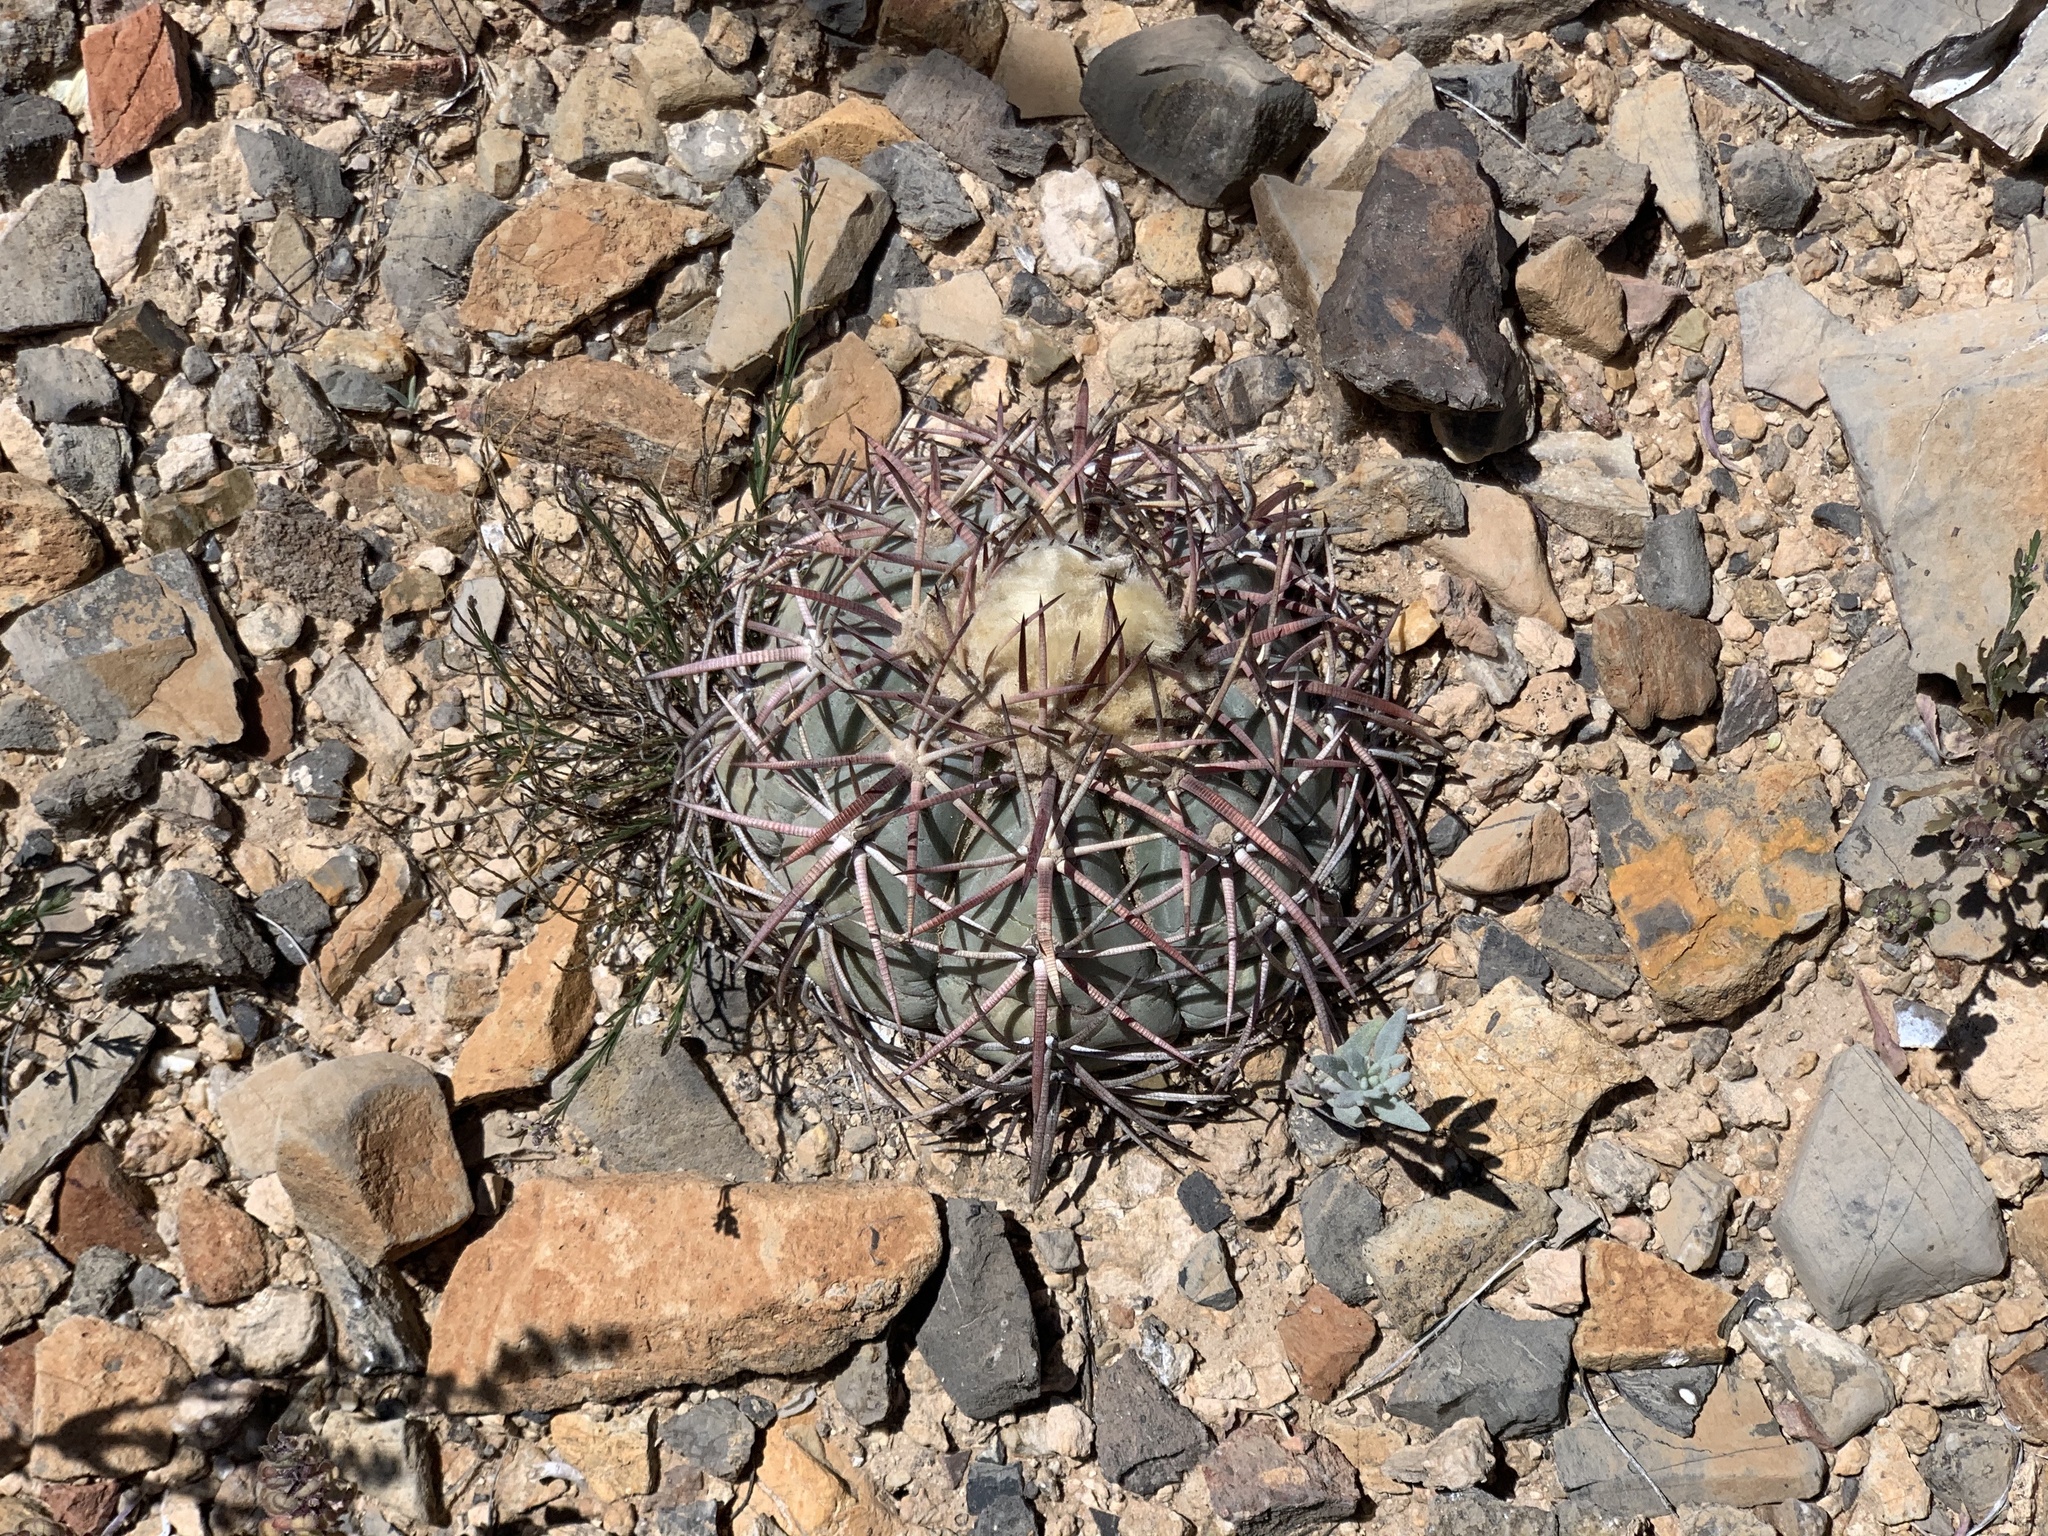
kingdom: Plantae
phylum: Tracheophyta
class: Magnoliopsida
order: Caryophyllales
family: Cactaceae
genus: Echinocactus
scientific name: Echinocactus horizonthalonius
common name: Devilshead
